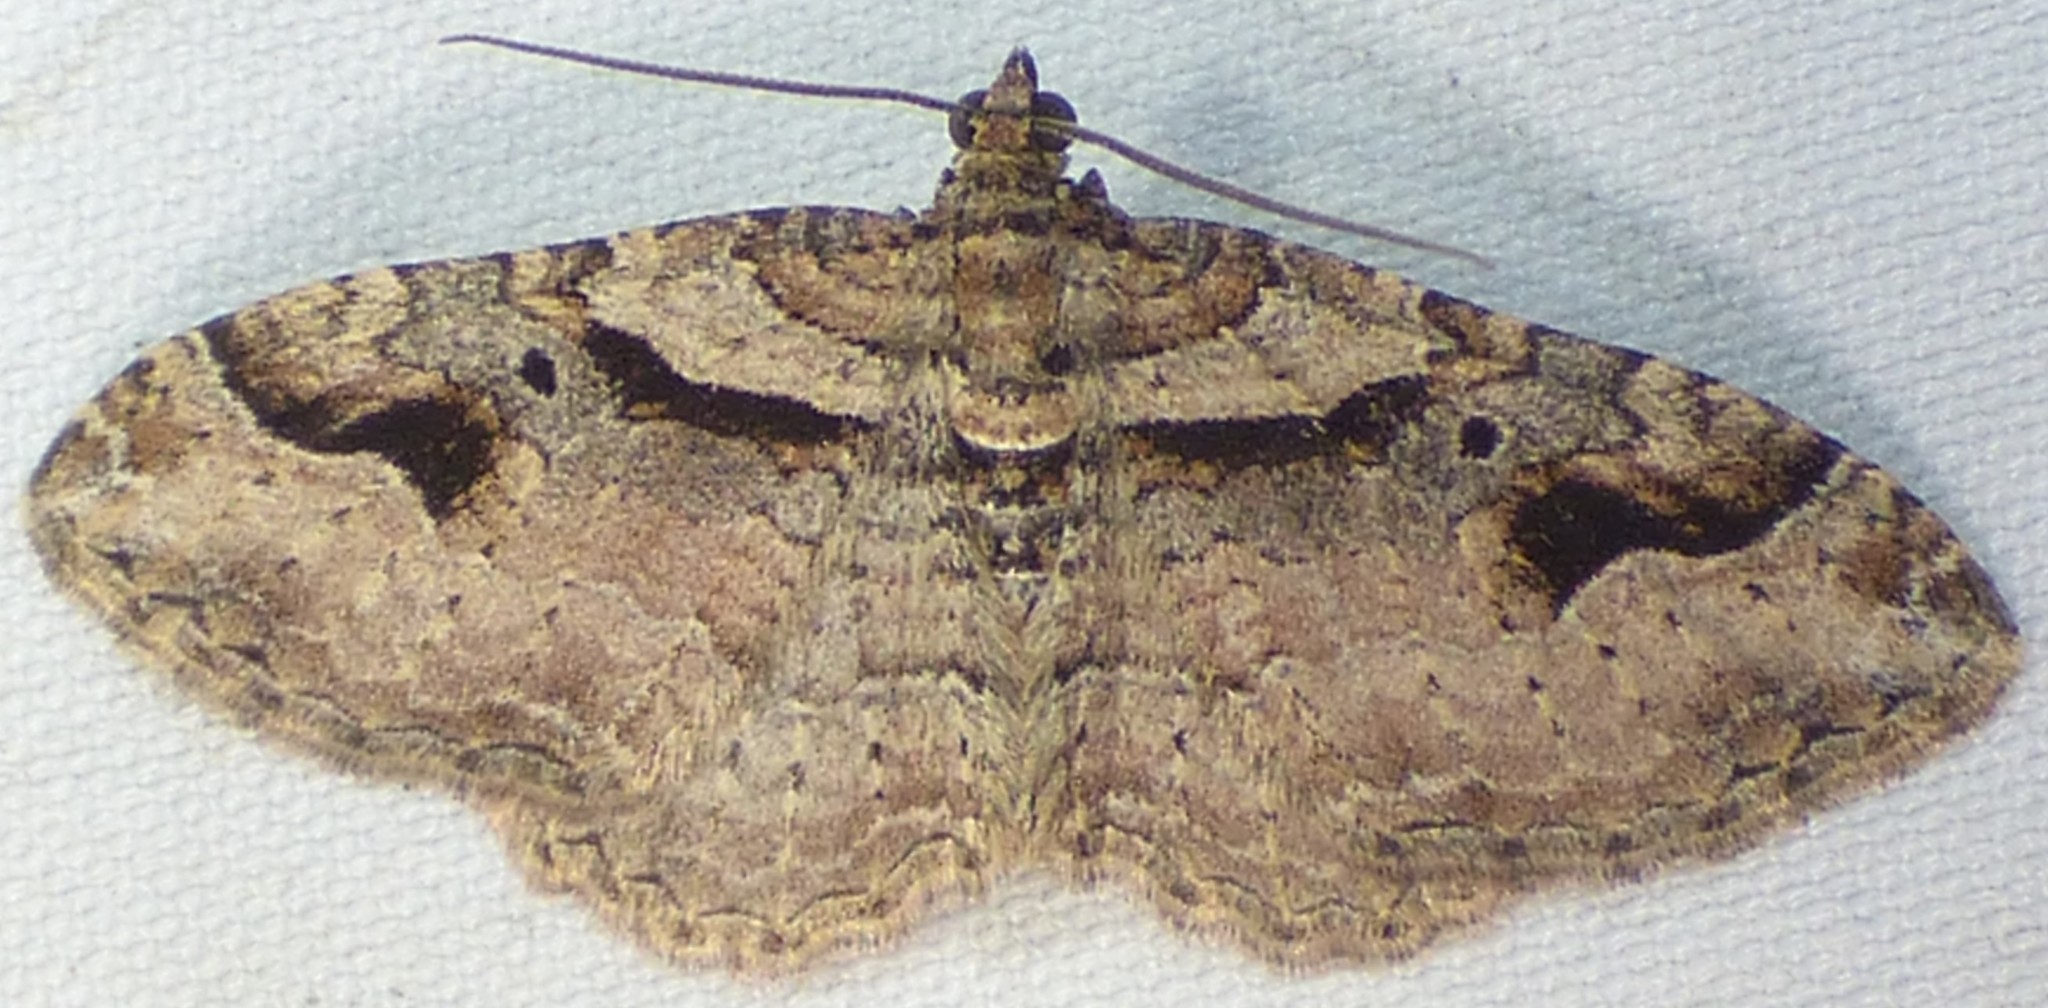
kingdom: Animalia
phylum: Arthropoda
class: Insecta
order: Lepidoptera
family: Geometridae
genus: Costaconvexa
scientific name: Costaconvexa centrostrigaria
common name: Bent-line carpet
